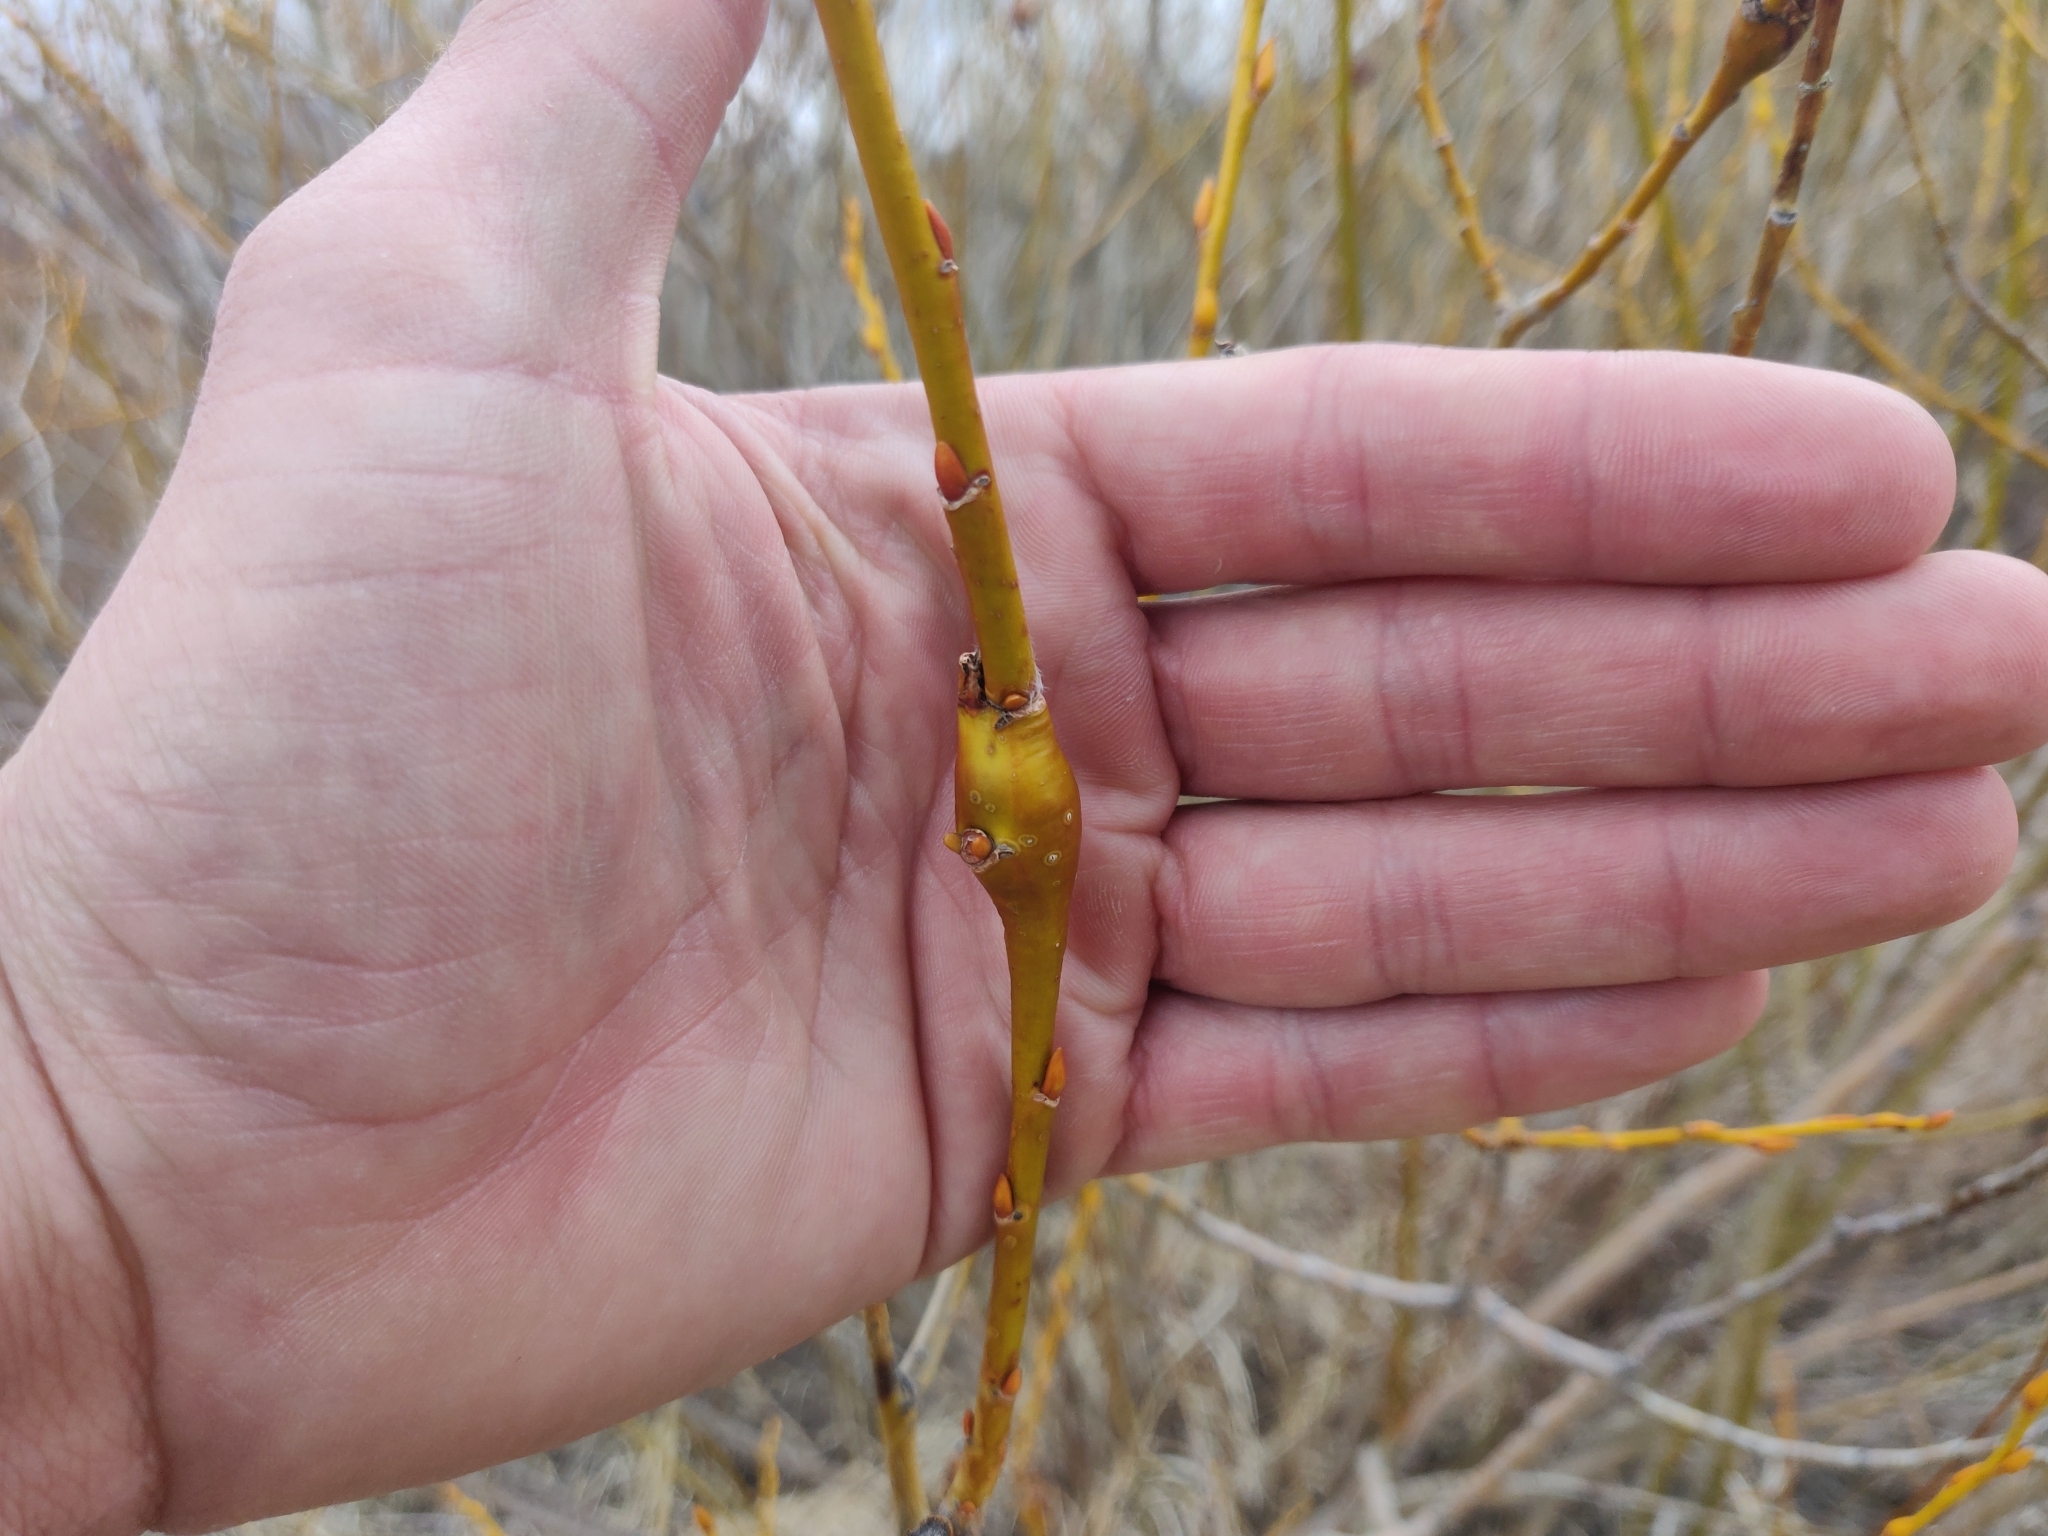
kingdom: Animalia
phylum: Arthropoda
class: Insecta
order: Diptera
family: Cecidomyiidae
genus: Thecodiplosis
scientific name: Thecodiplosis pinirigidae
